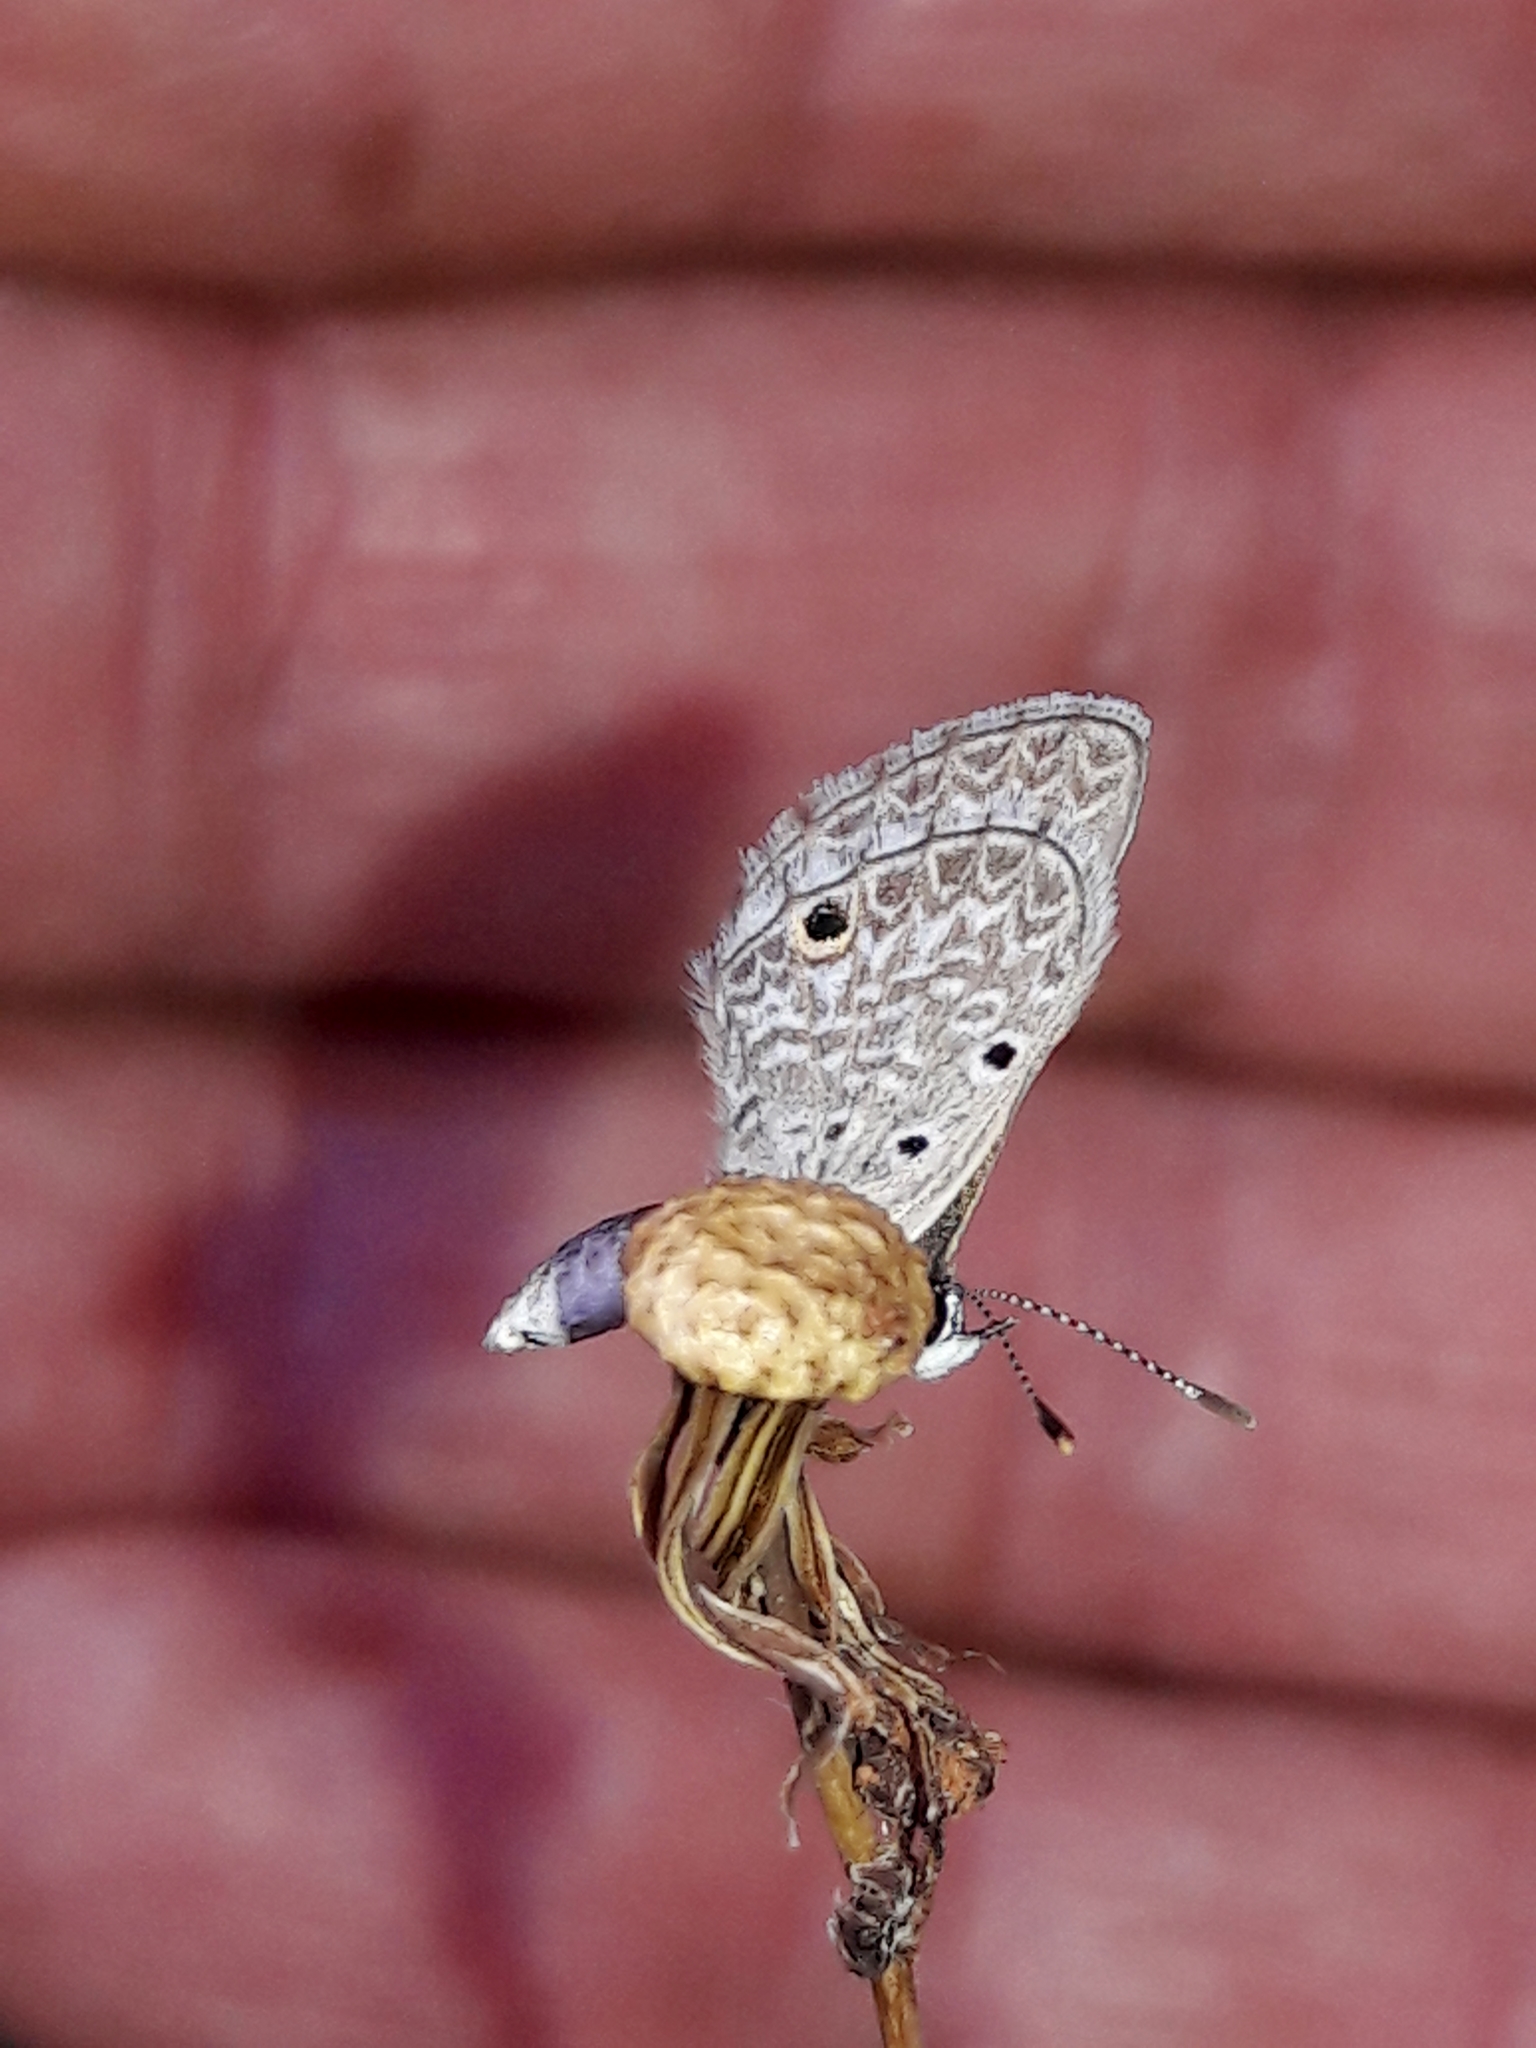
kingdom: Animalia
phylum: Arthropoda
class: Insecta
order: Lepidoptera
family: Lycaenidae
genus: Hemiargus
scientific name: Hemiargus hanno
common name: Common blue
